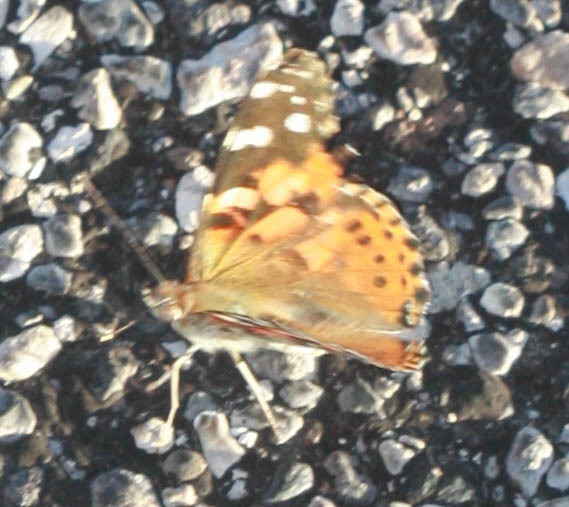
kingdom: Animalia
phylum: Arthropoda
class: Insecta
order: Lepidoptera
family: Nymphalidae
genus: Vanessa
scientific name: Vanessa cardui
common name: Painted lady
